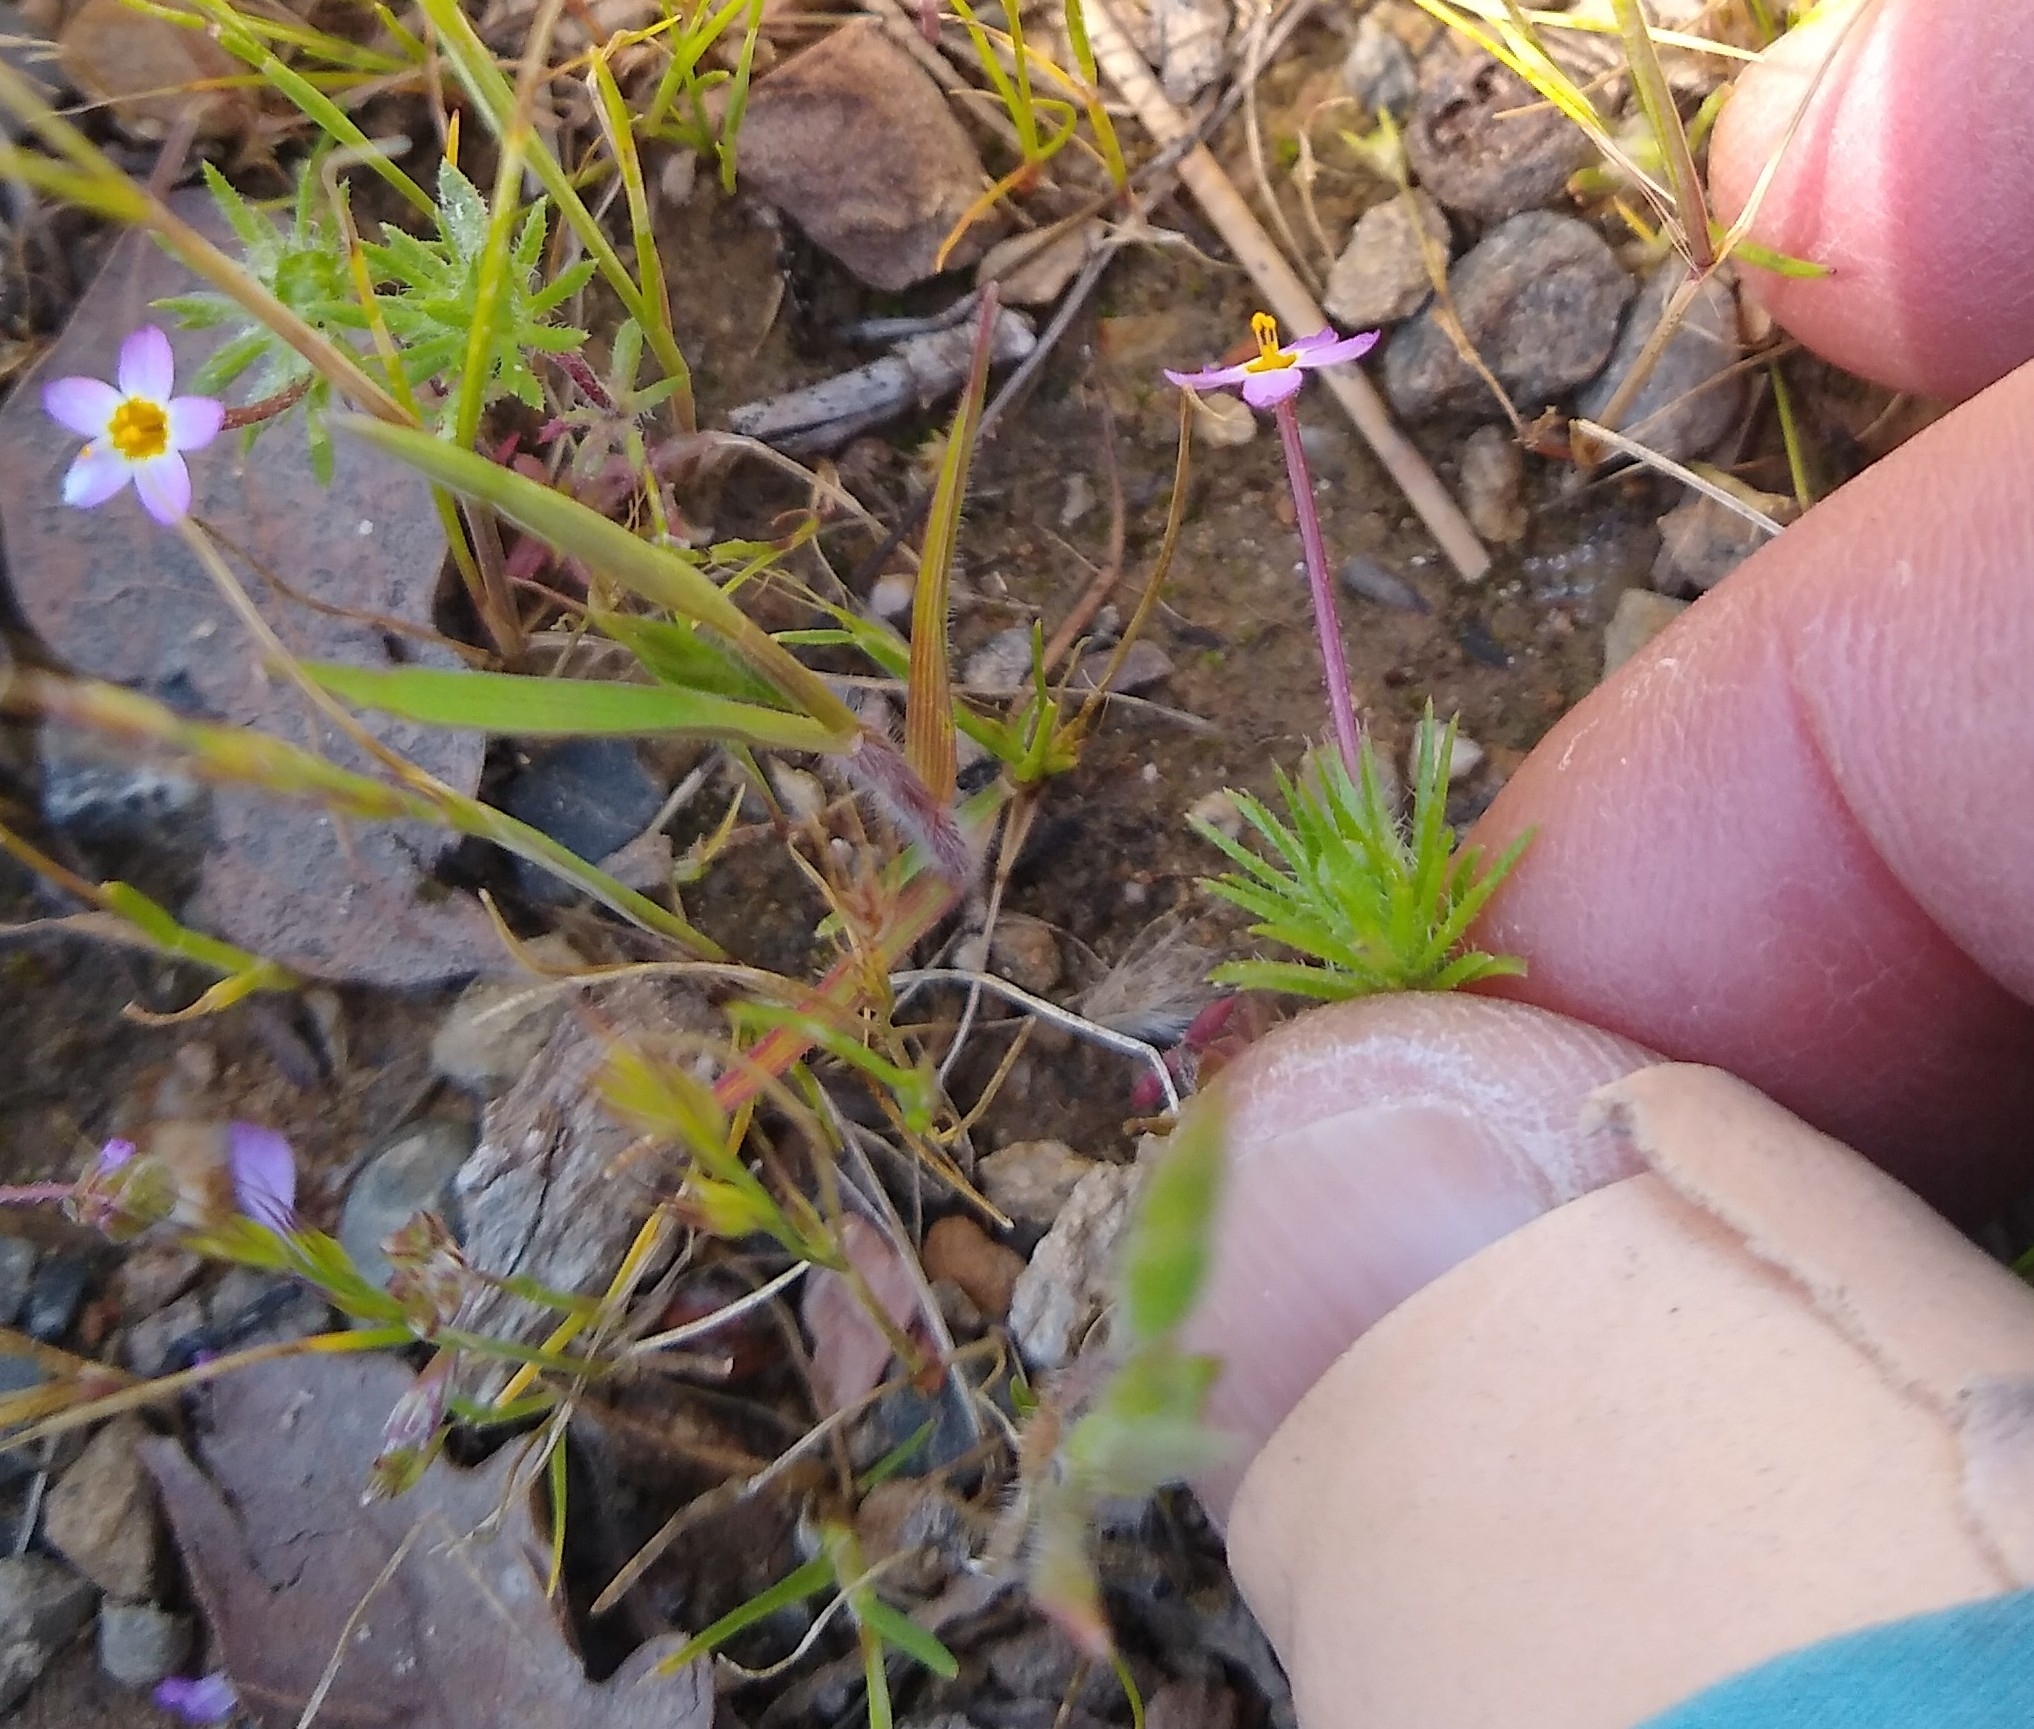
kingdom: Plantae
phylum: Tracheophyta
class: Magnoliopsida
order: Ericales
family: Polemoniaceae
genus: Leptosiphon
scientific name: Leptosiphon bicolor
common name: True babystars
